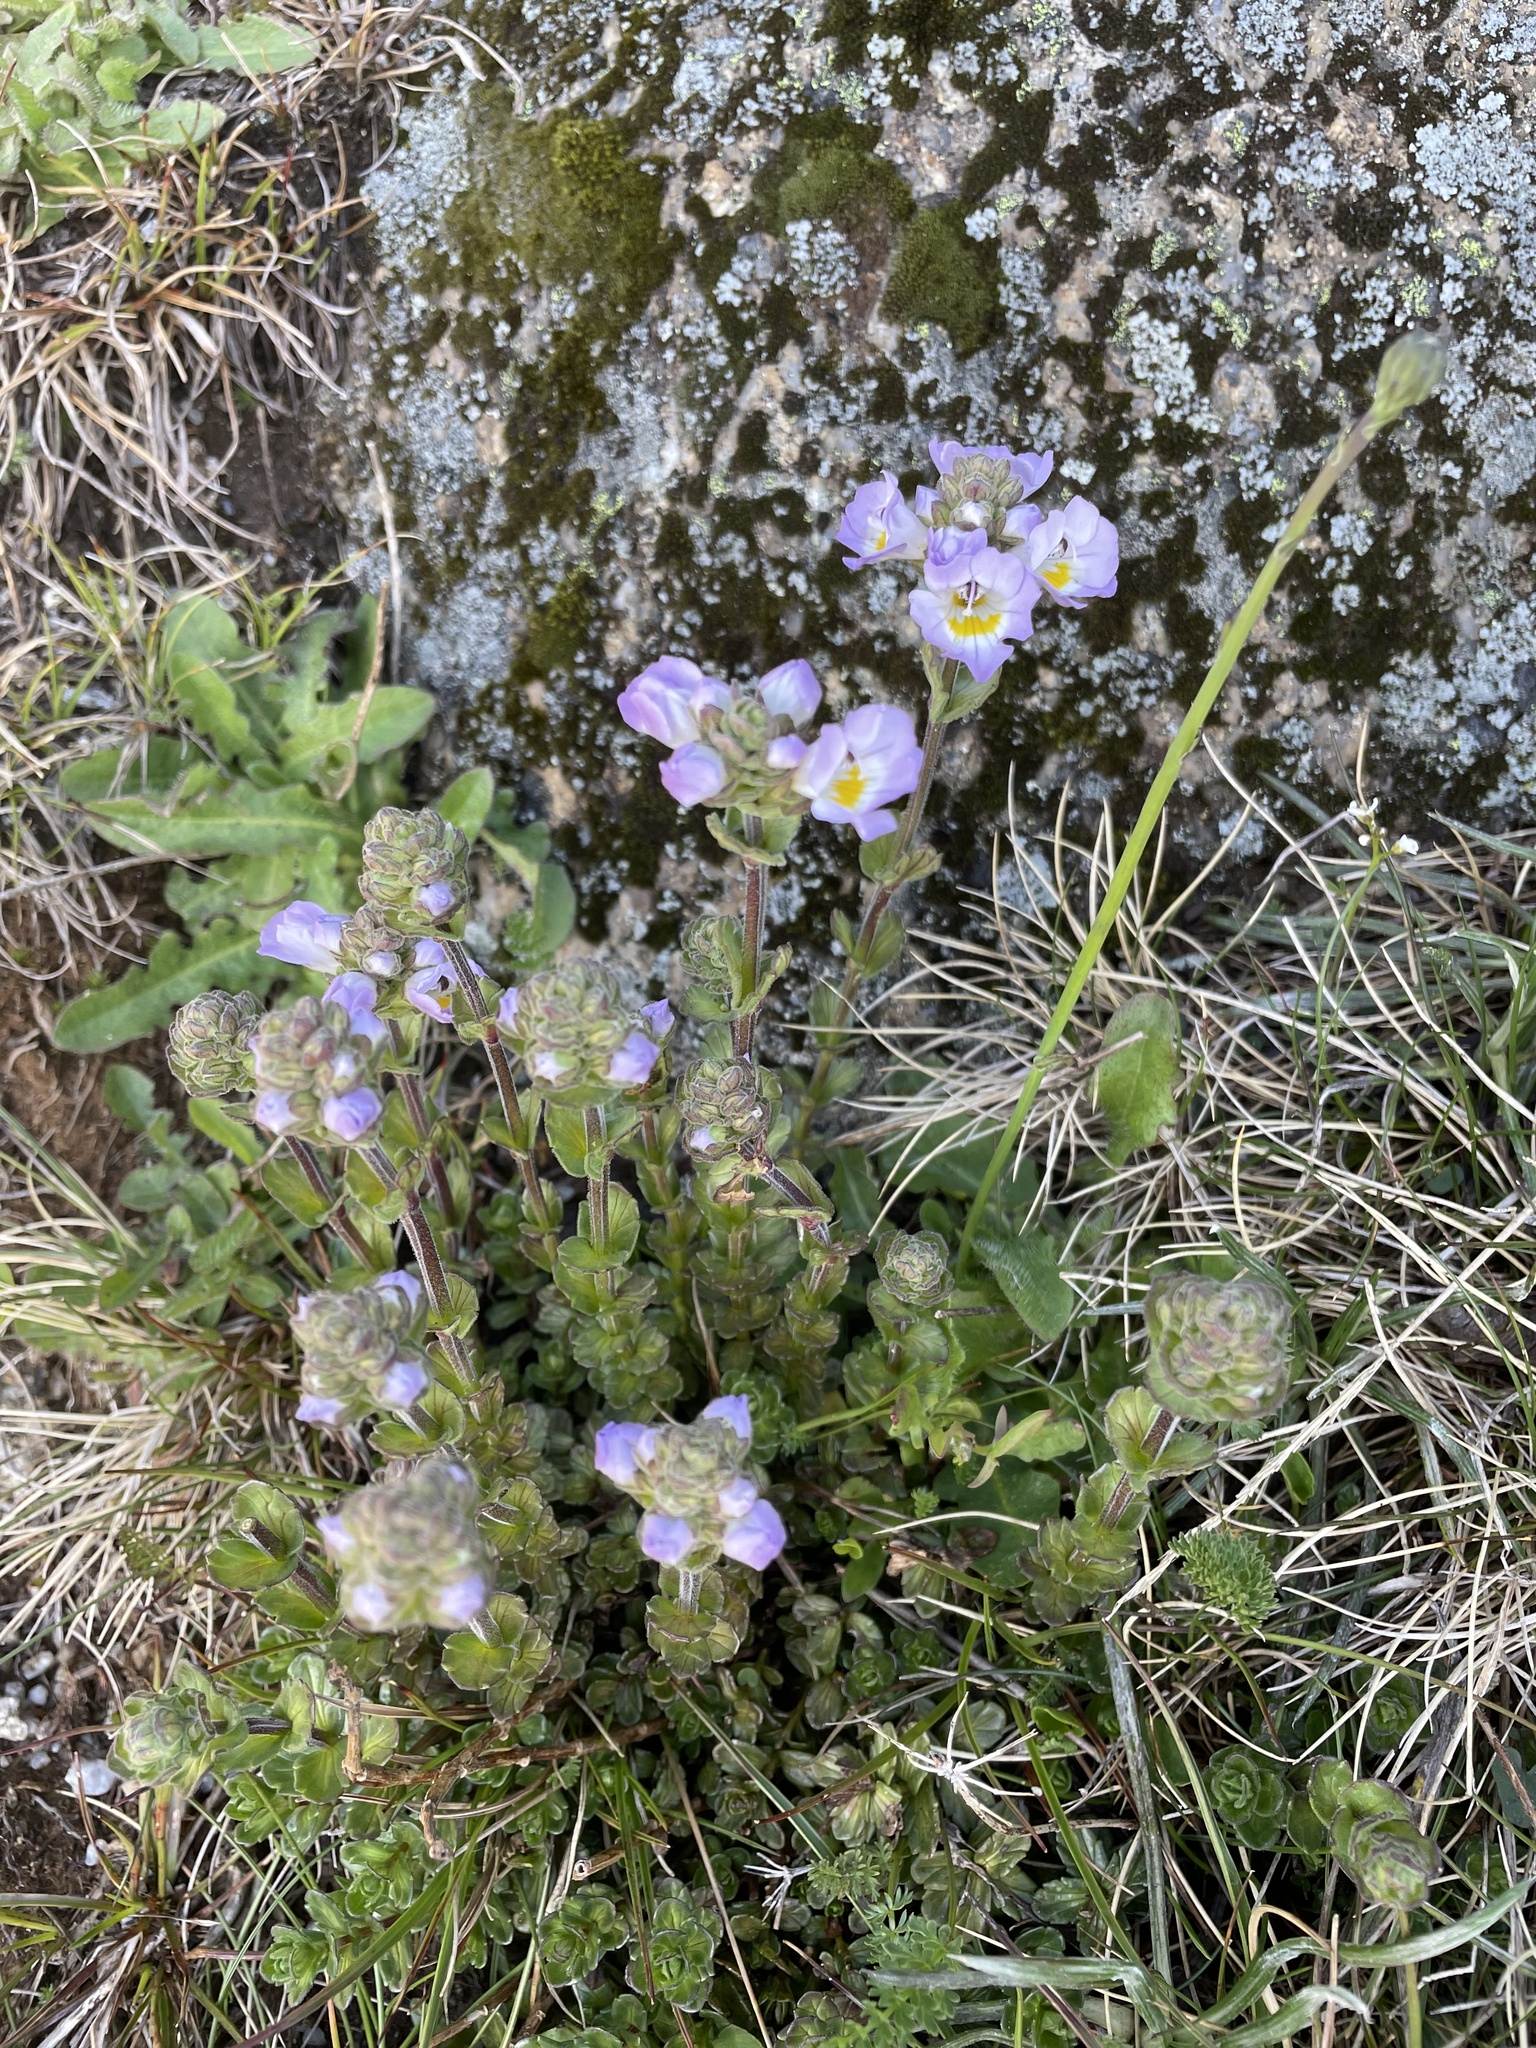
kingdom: Plantae
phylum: Tracheophyta
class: Magnoliopsida
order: Lamiales
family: Orobanchaceae
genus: Euphrasia
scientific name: Euphrasia collina
